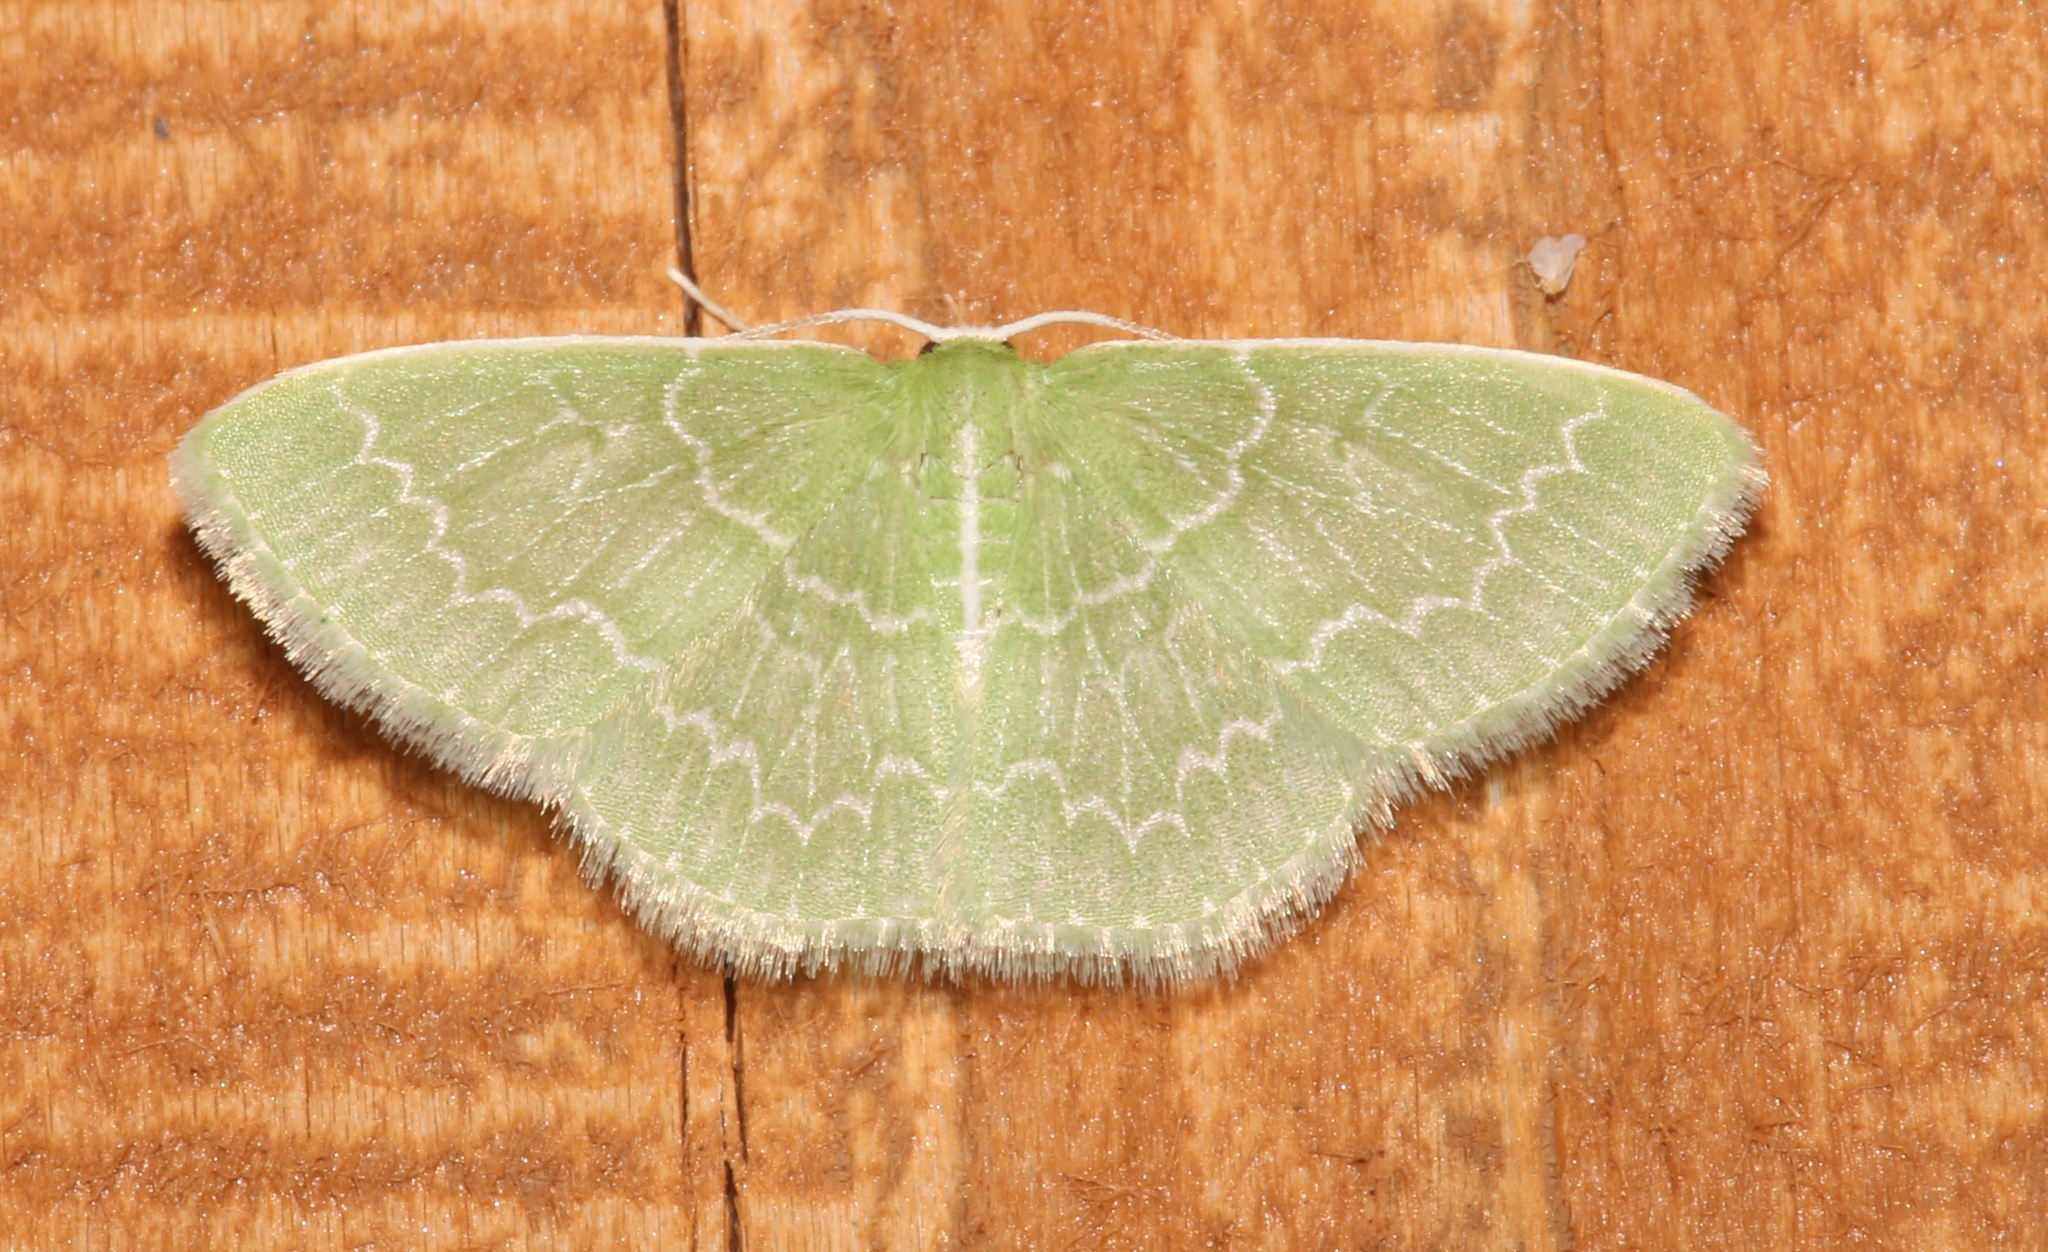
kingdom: Animalia
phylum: Arthropoda
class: Insecta
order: Lepidoptera
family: Geometridae
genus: Synchlora
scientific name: Synchlora frondaria
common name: Southern emerald
